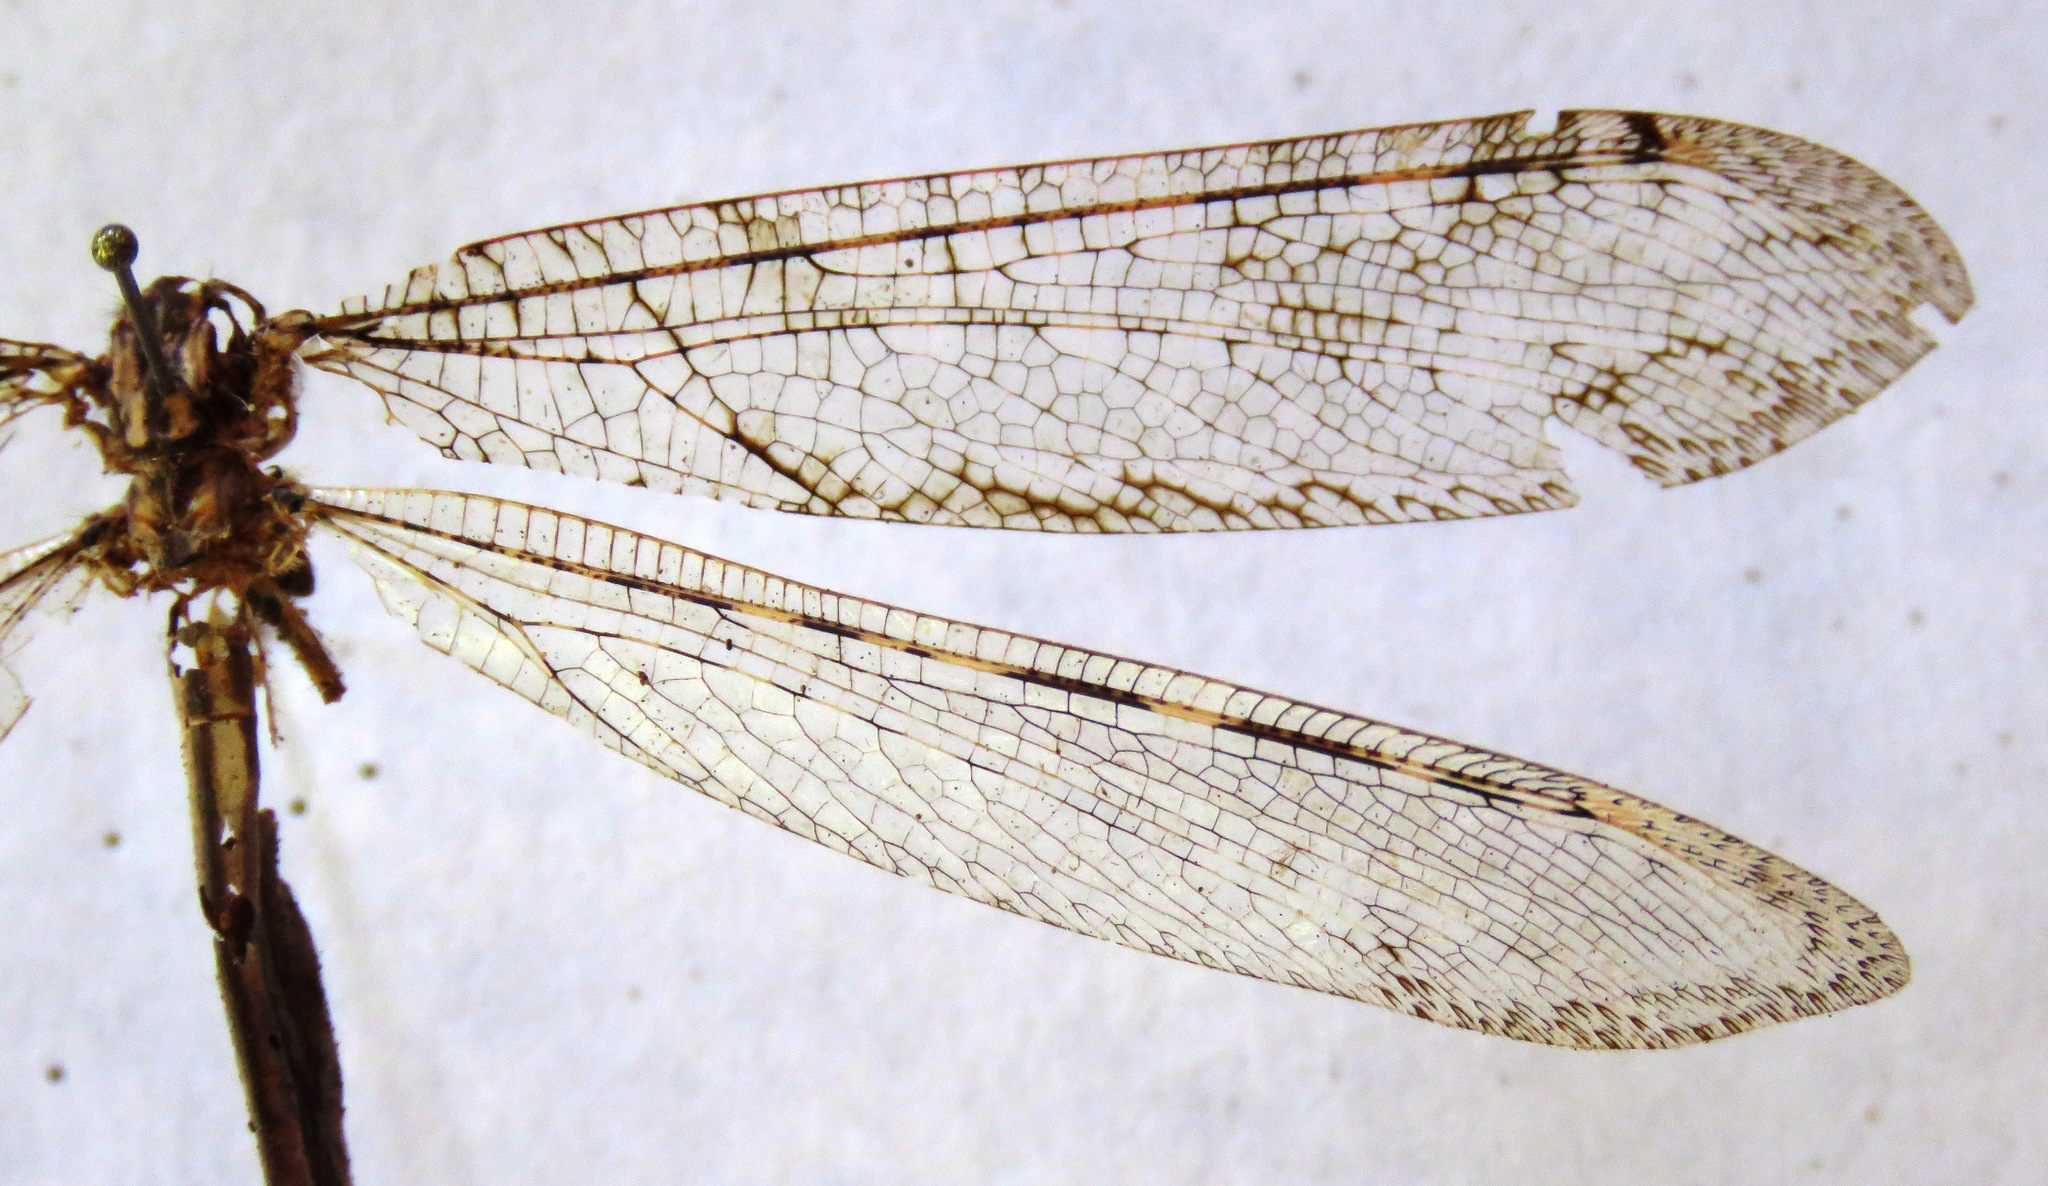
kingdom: Animalia
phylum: Arthropoda
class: Insecta
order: Neuroptera
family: Myrmeleontidae
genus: Vella
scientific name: Vella fallax
